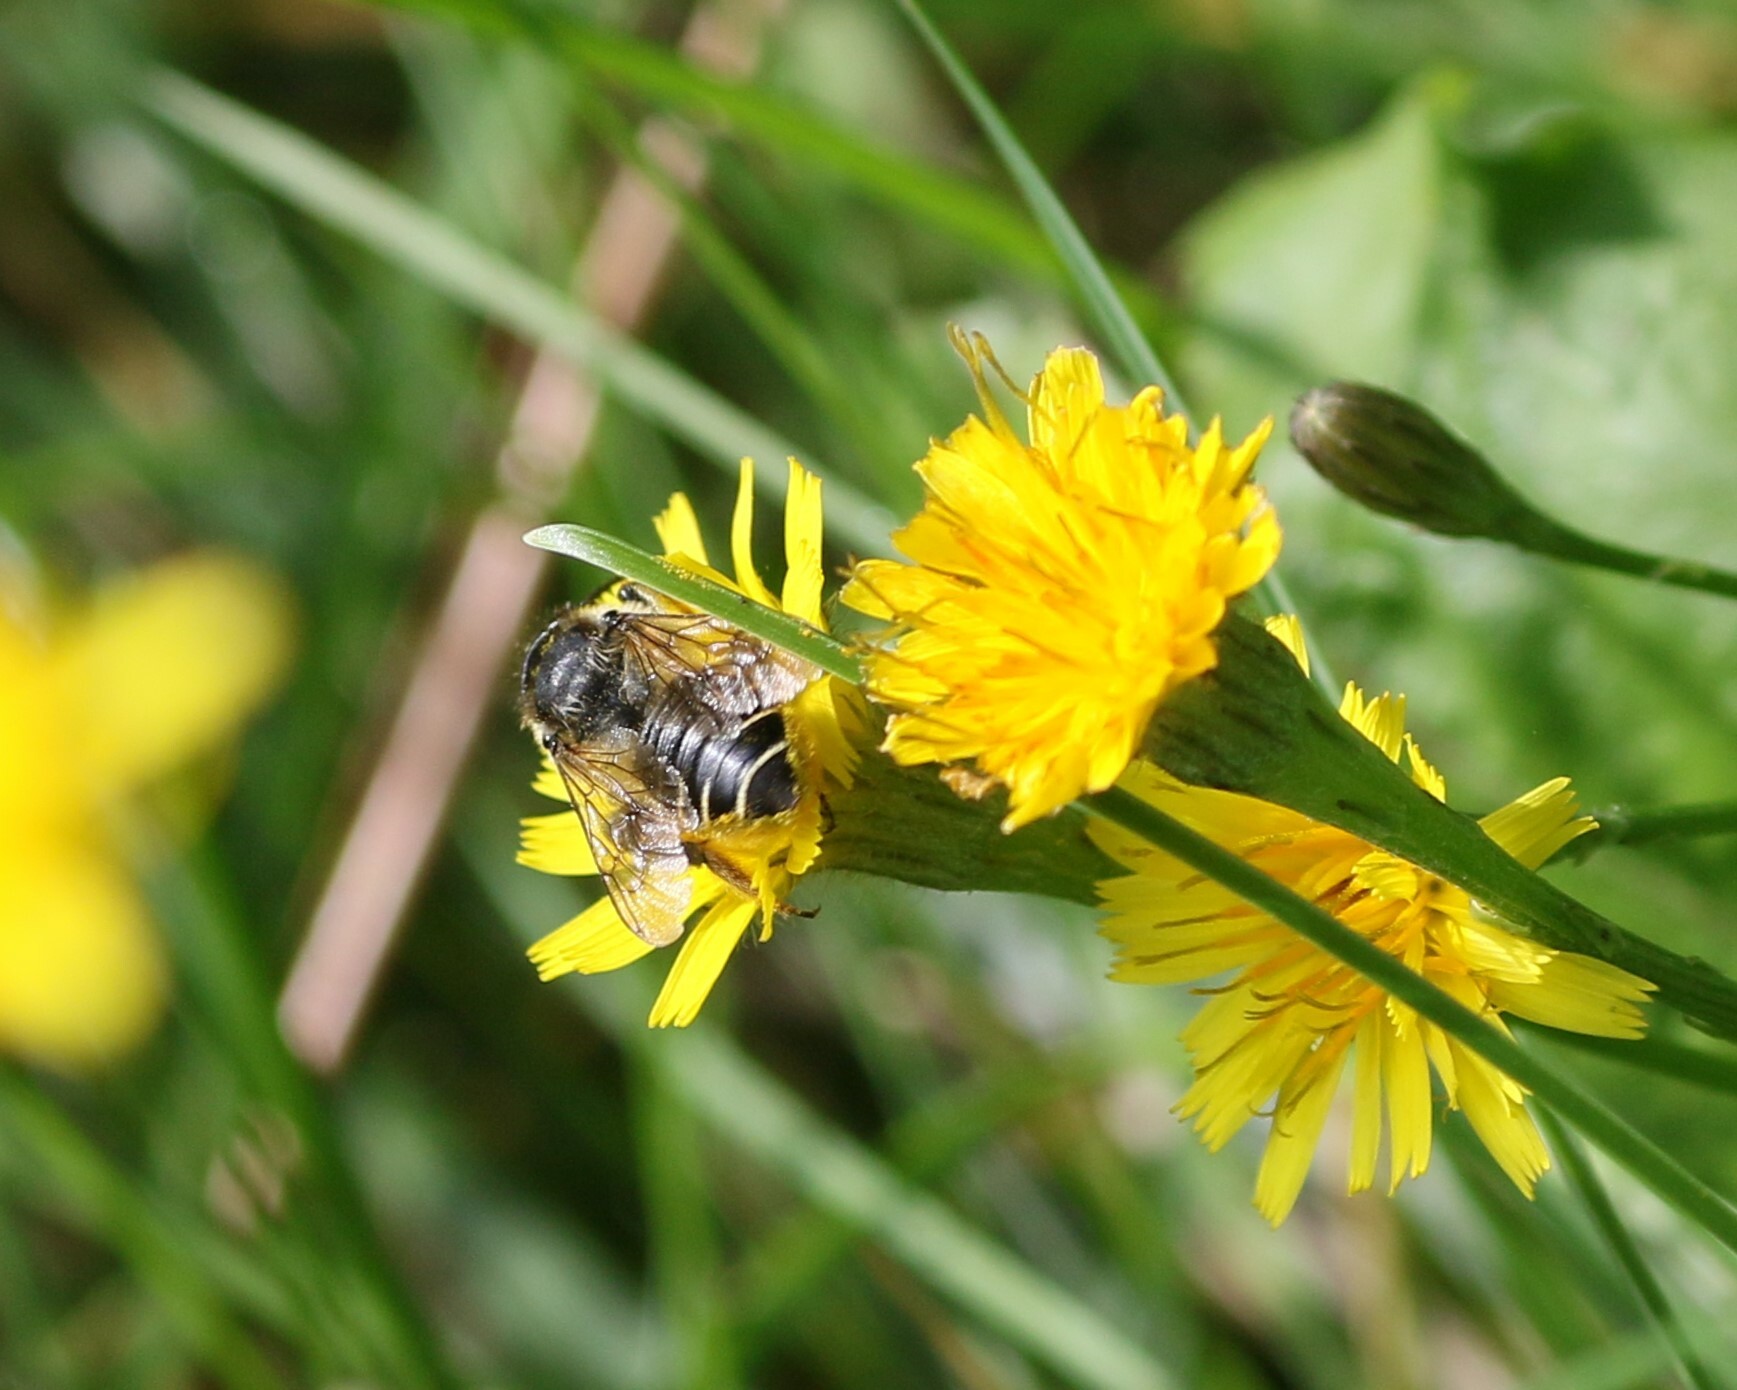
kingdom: Animalia
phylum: Arthropoda
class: Insecta
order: Hymenoptera
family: Megachilidae
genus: Megachile
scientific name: Megachile inermis
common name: Unarmed leafcutter bee
